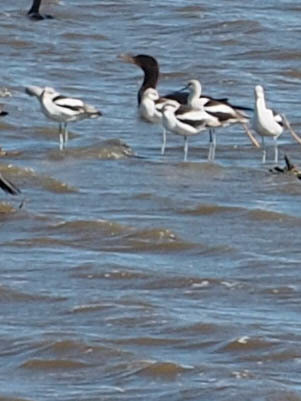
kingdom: Animalia
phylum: Chordata
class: Aves
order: Charadriiformes
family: Recurvirostridae
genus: Recurvirostra
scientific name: Recurvirostra americana
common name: American avocet
